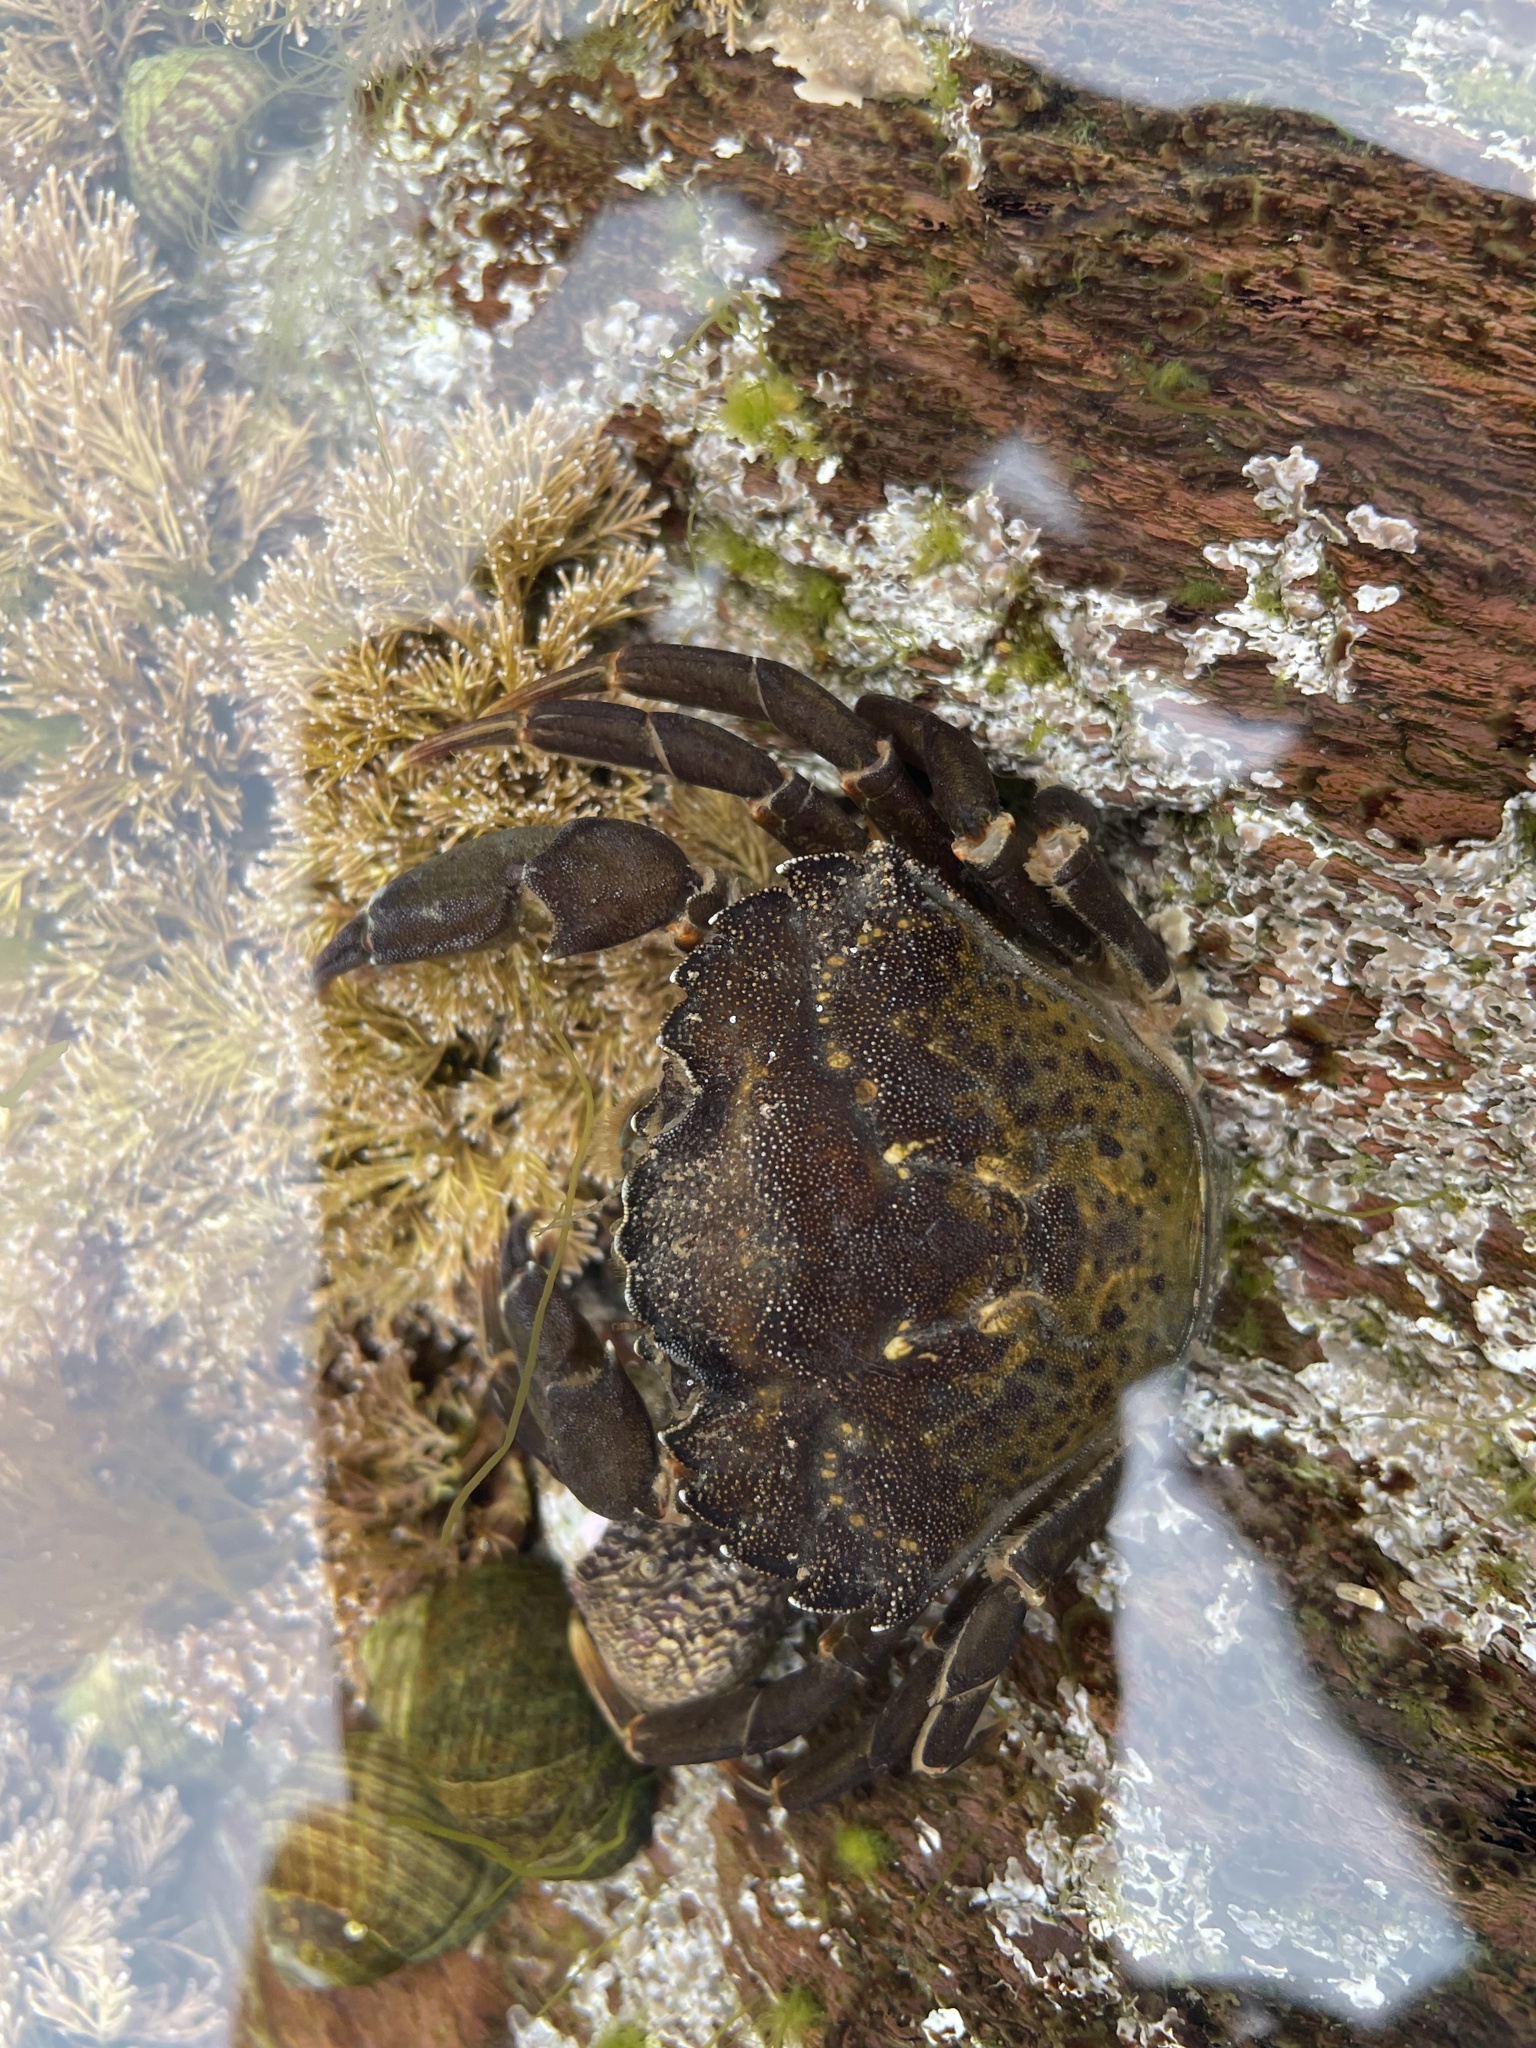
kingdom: Animalia
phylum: Arthropoda
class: Malacostraca
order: Decapoda
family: Carcinidae
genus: Carcinus
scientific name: Carcinus maenas
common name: European green crab
